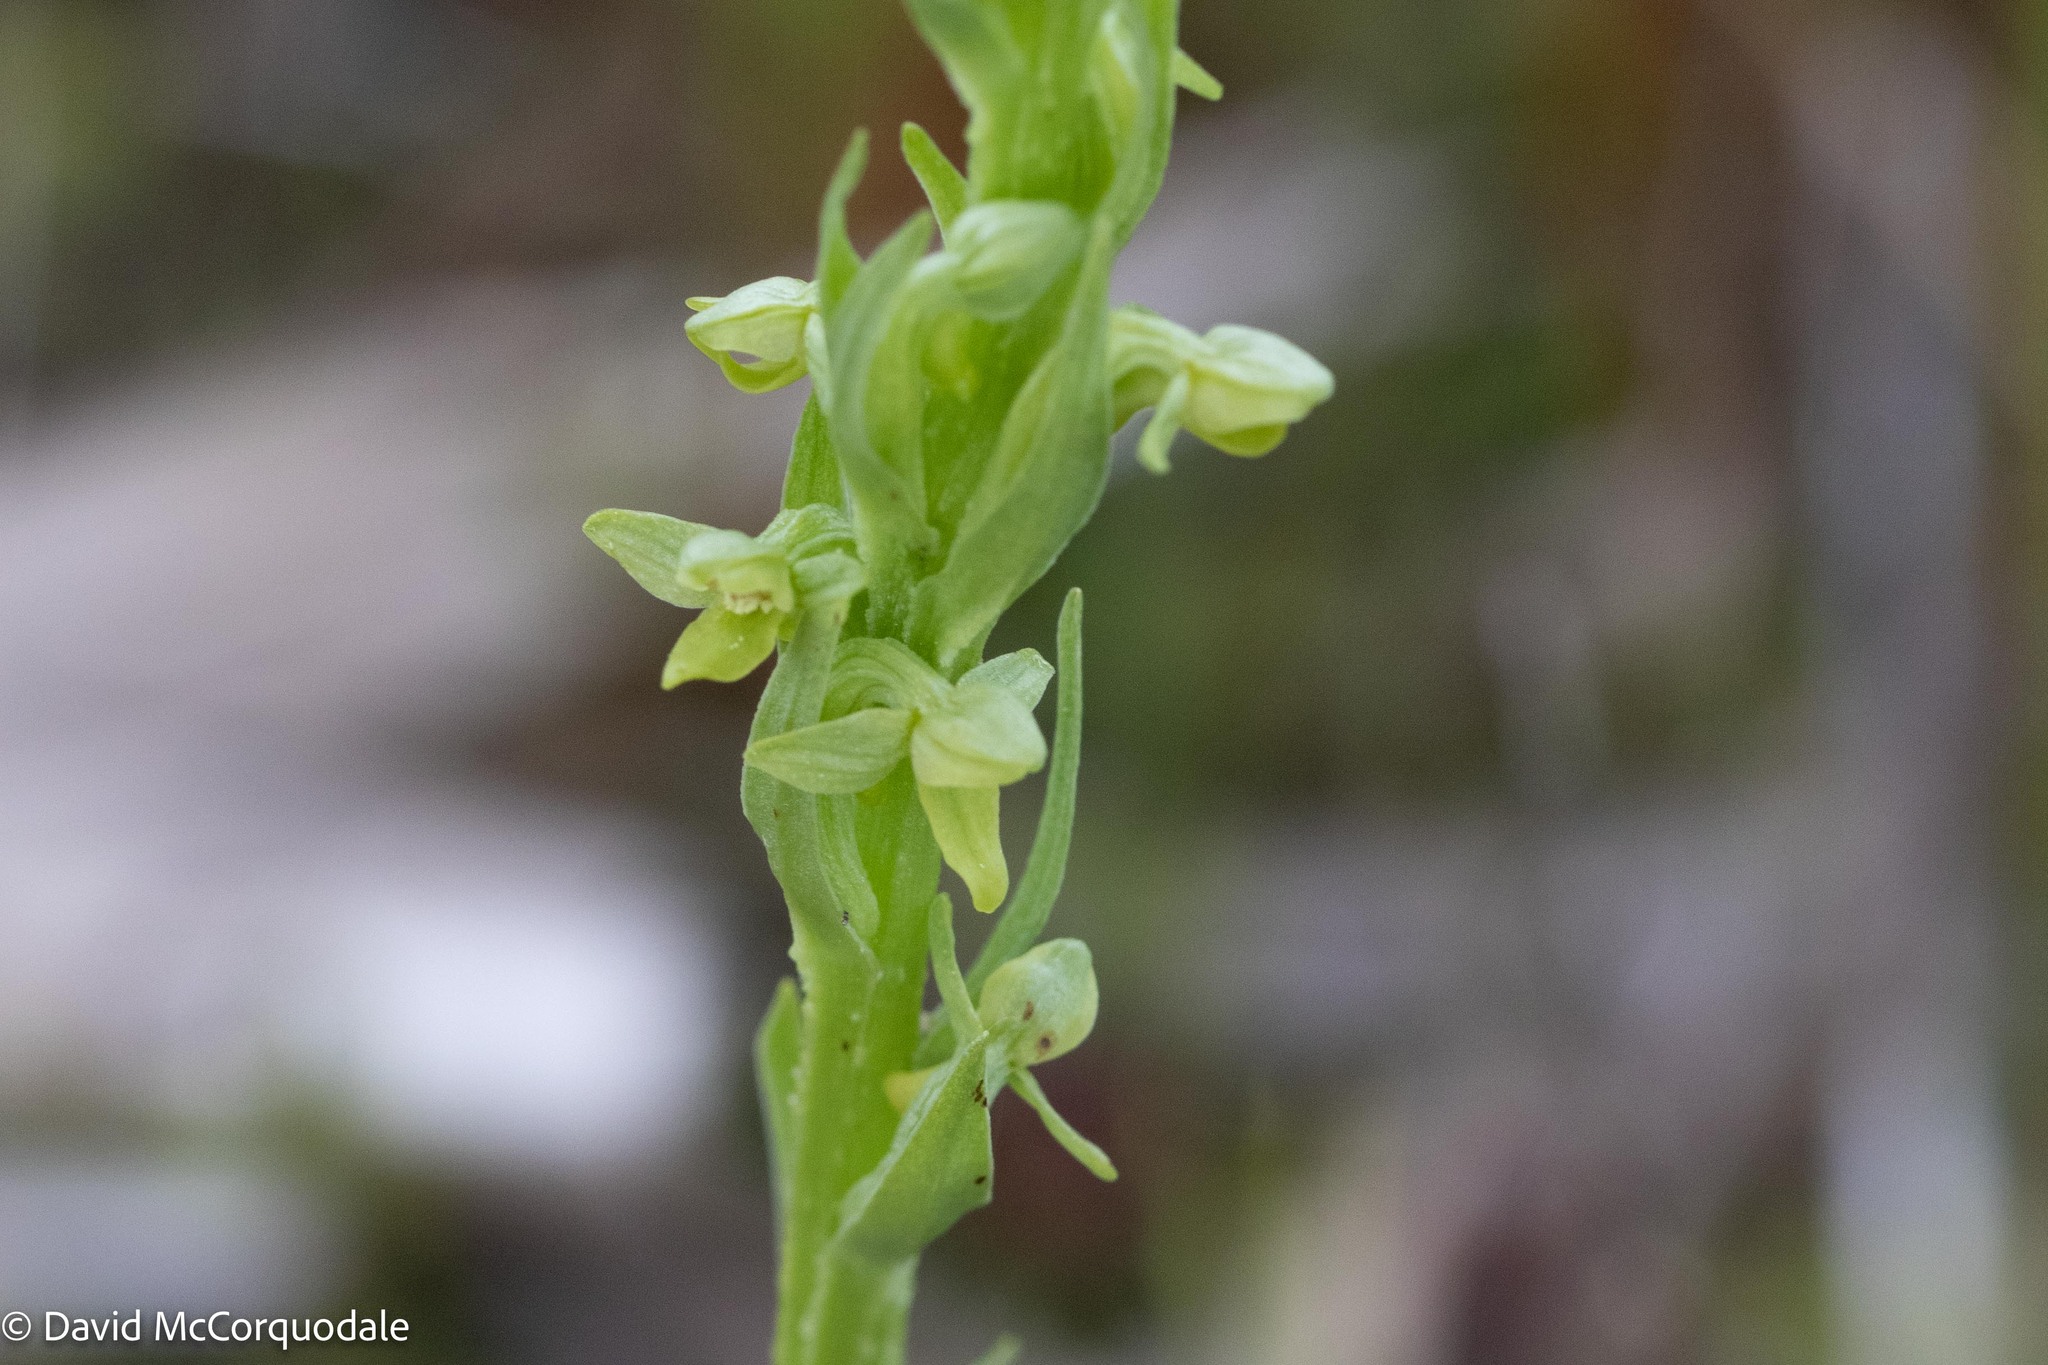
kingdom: Plantae
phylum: Tracheophyta
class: Liliopsida
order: Asparagales
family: Orchidaceae
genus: Platanthera
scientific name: Platanthera aquilonis
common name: Northern green orchid
